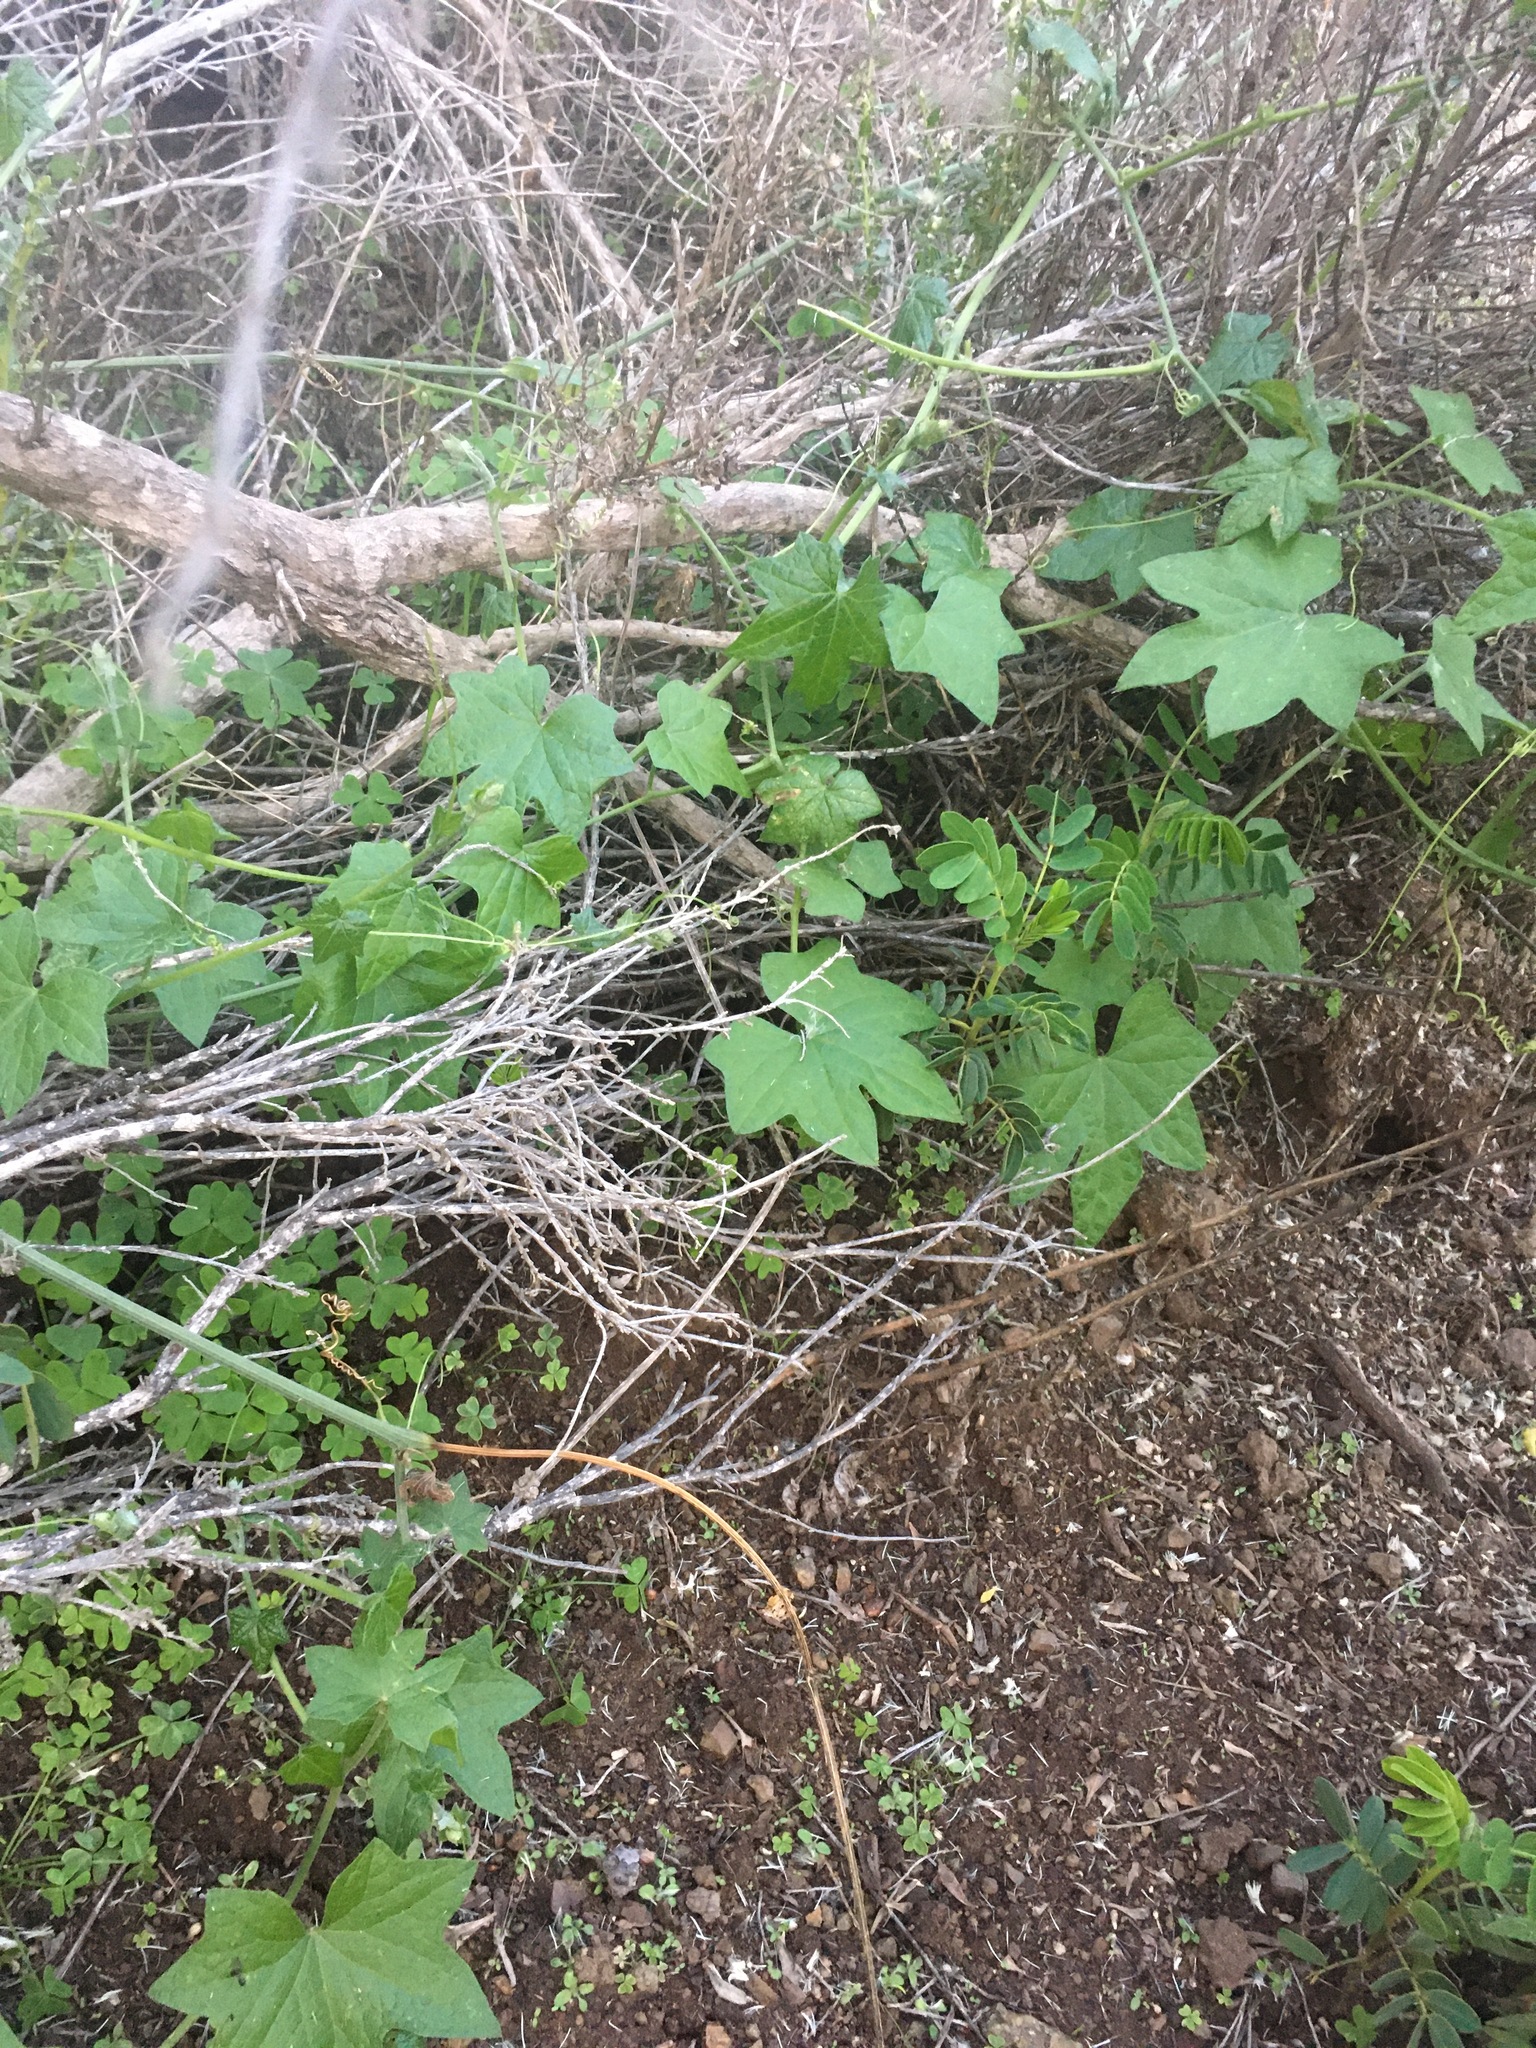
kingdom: Plantae
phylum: Tracheophyta
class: Magnoliopsida
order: Cucurbitales
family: Cucurbitaceae
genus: Marah
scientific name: Marah fabacea
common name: California manroot
